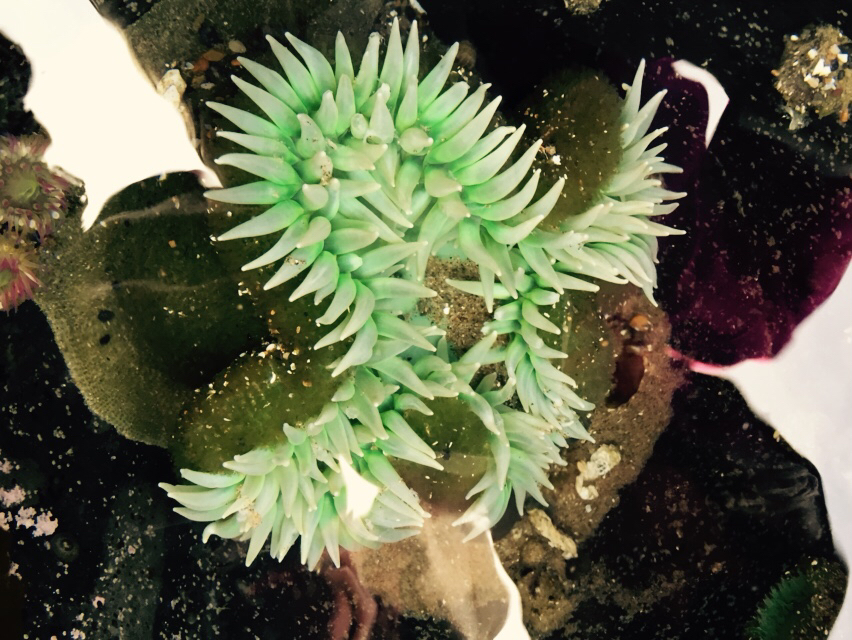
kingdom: Animalia
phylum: Cnidaria
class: Anthozoa
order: Actiniaria
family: Actiniidae
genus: Anthopleura
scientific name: Anthopleura xanthogrammica
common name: Giant green anemone
